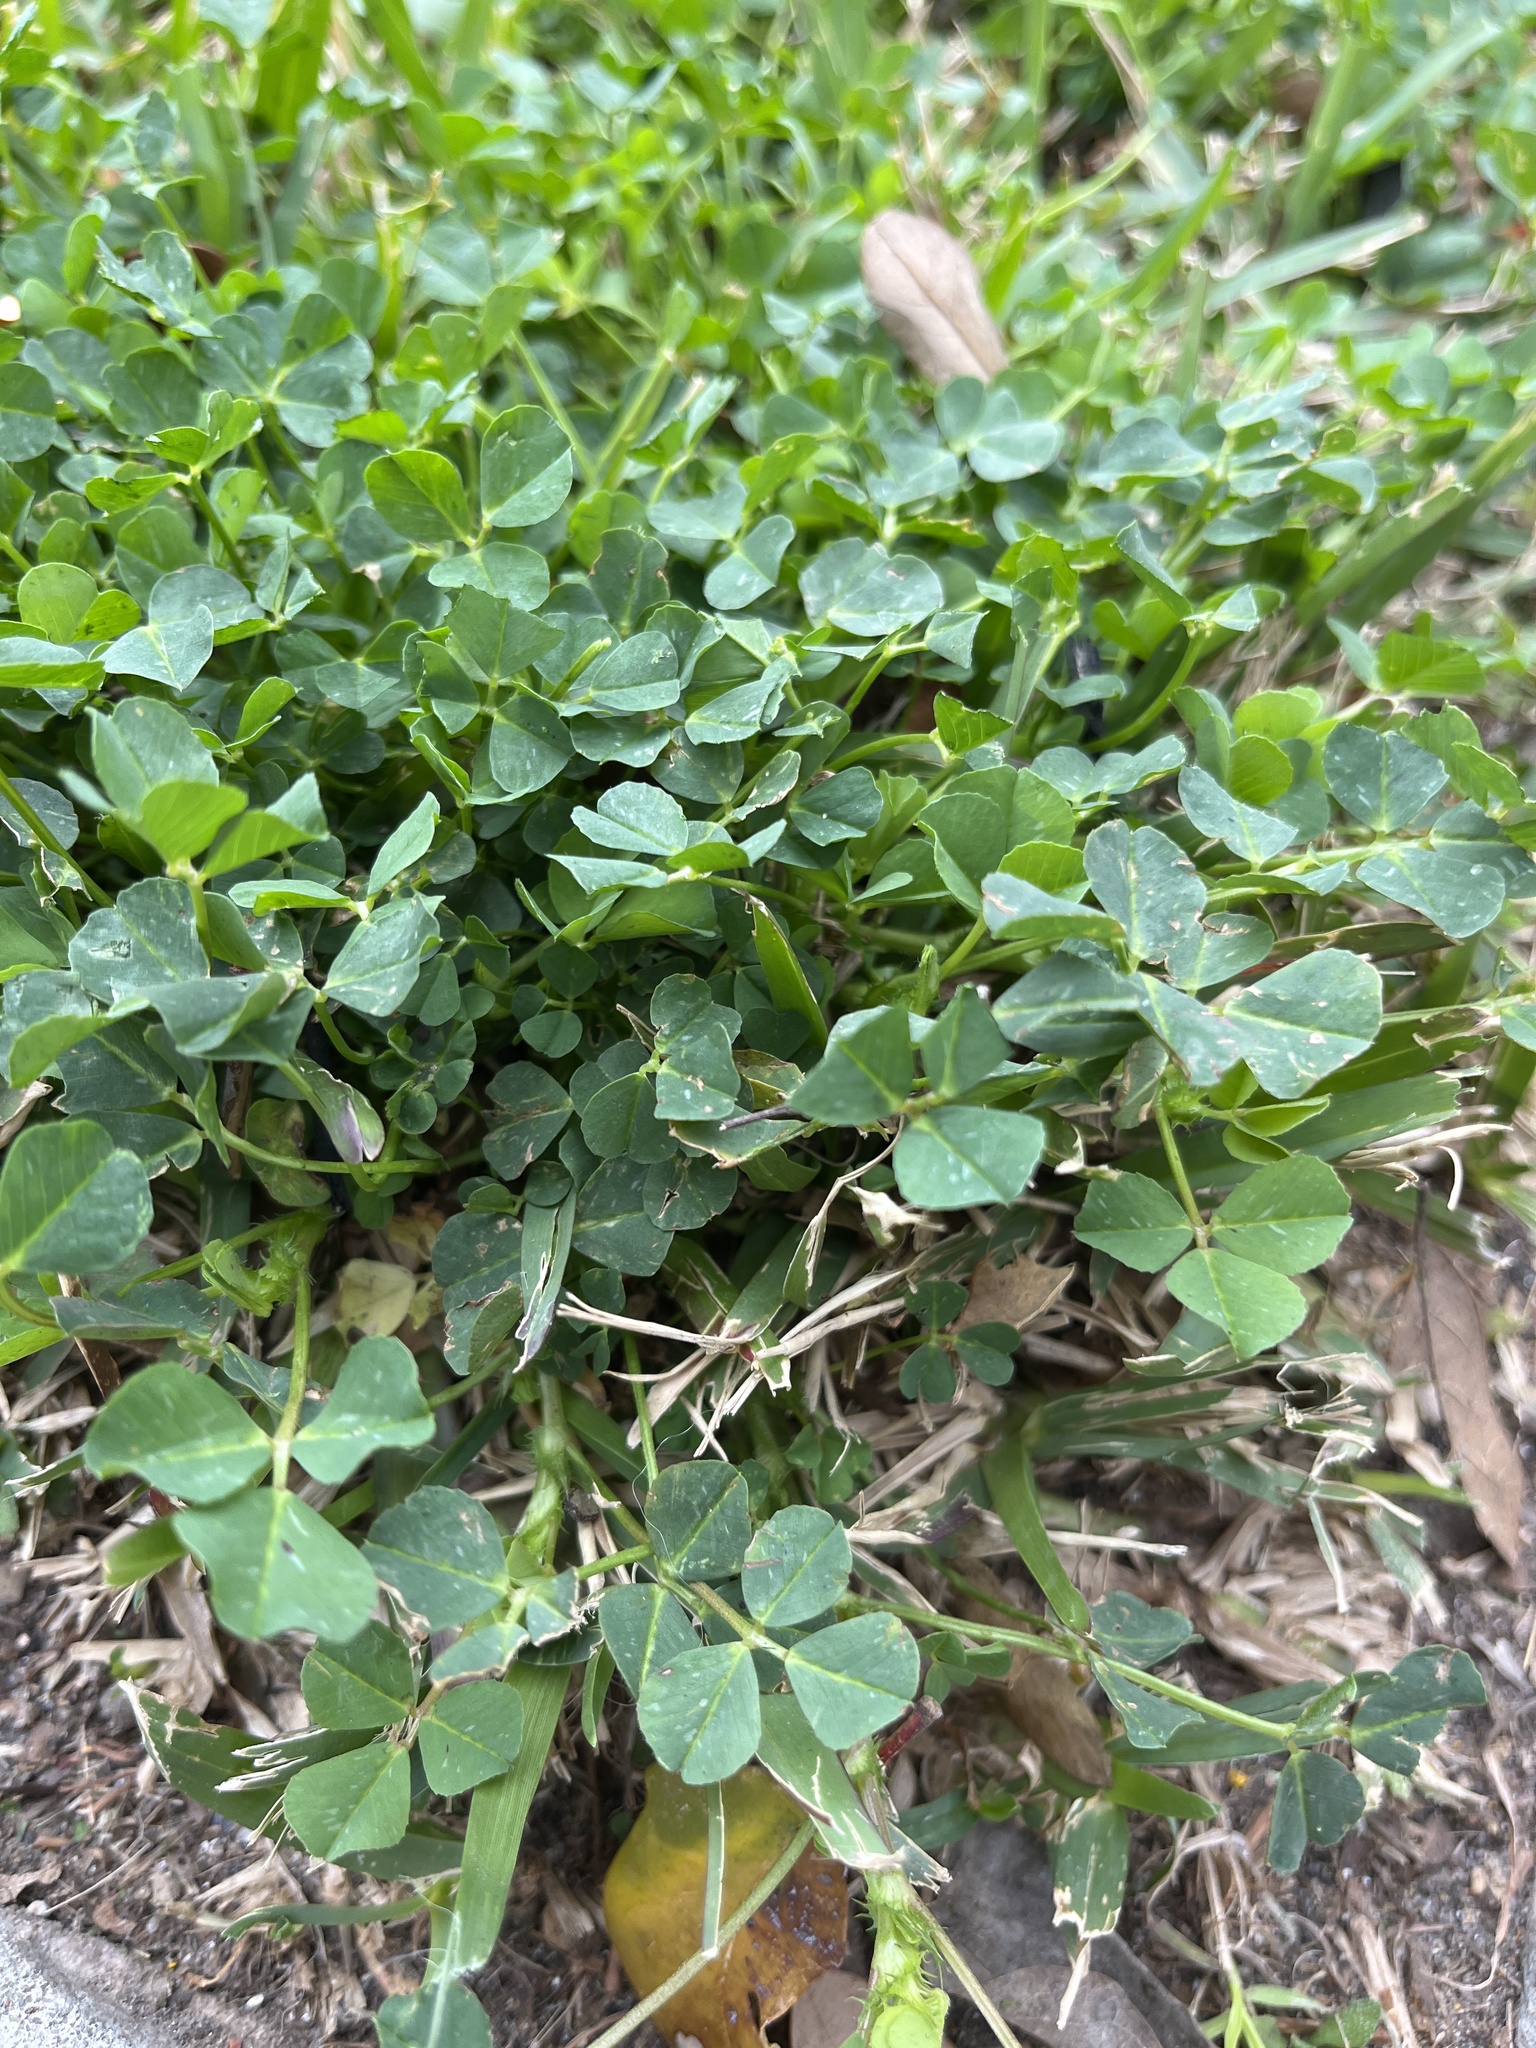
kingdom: Plantae
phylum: Tracheophyta
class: Magnoliopsida
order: Fabales
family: Fabaceae
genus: Medicago
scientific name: Medicago polymorpha
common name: Burclover
